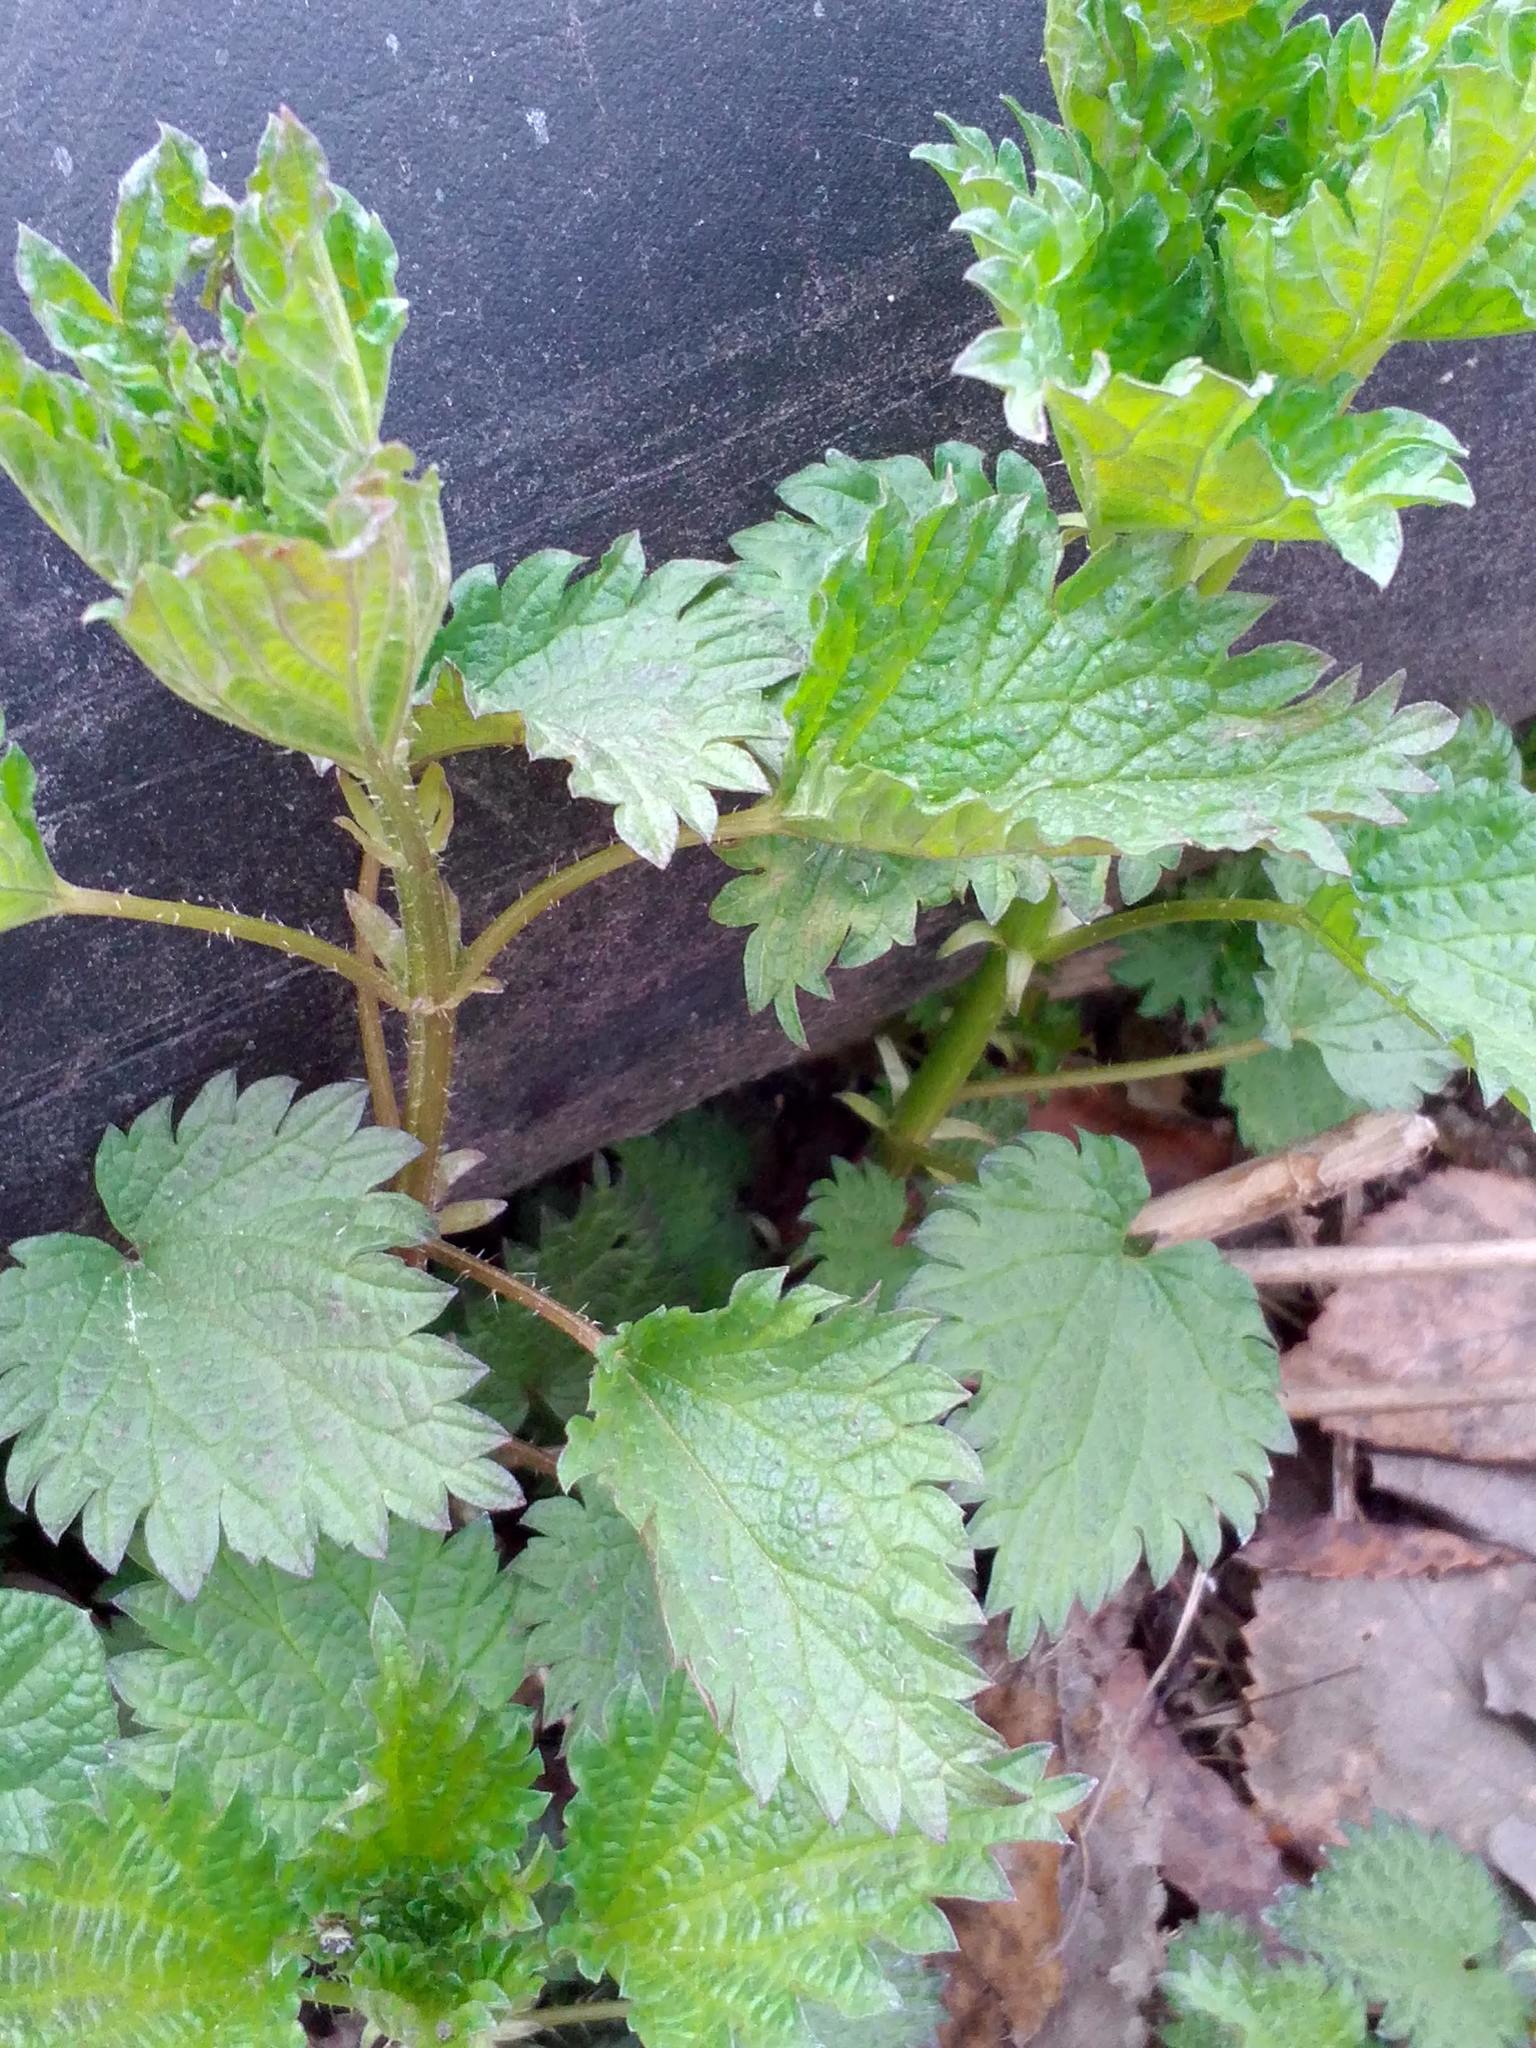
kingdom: Plantae
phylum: Tracheophyta
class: Magnoliopsida
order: Rosales
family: Urticaceae
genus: Urtica
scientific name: Urtica dioica
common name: Common nettle
